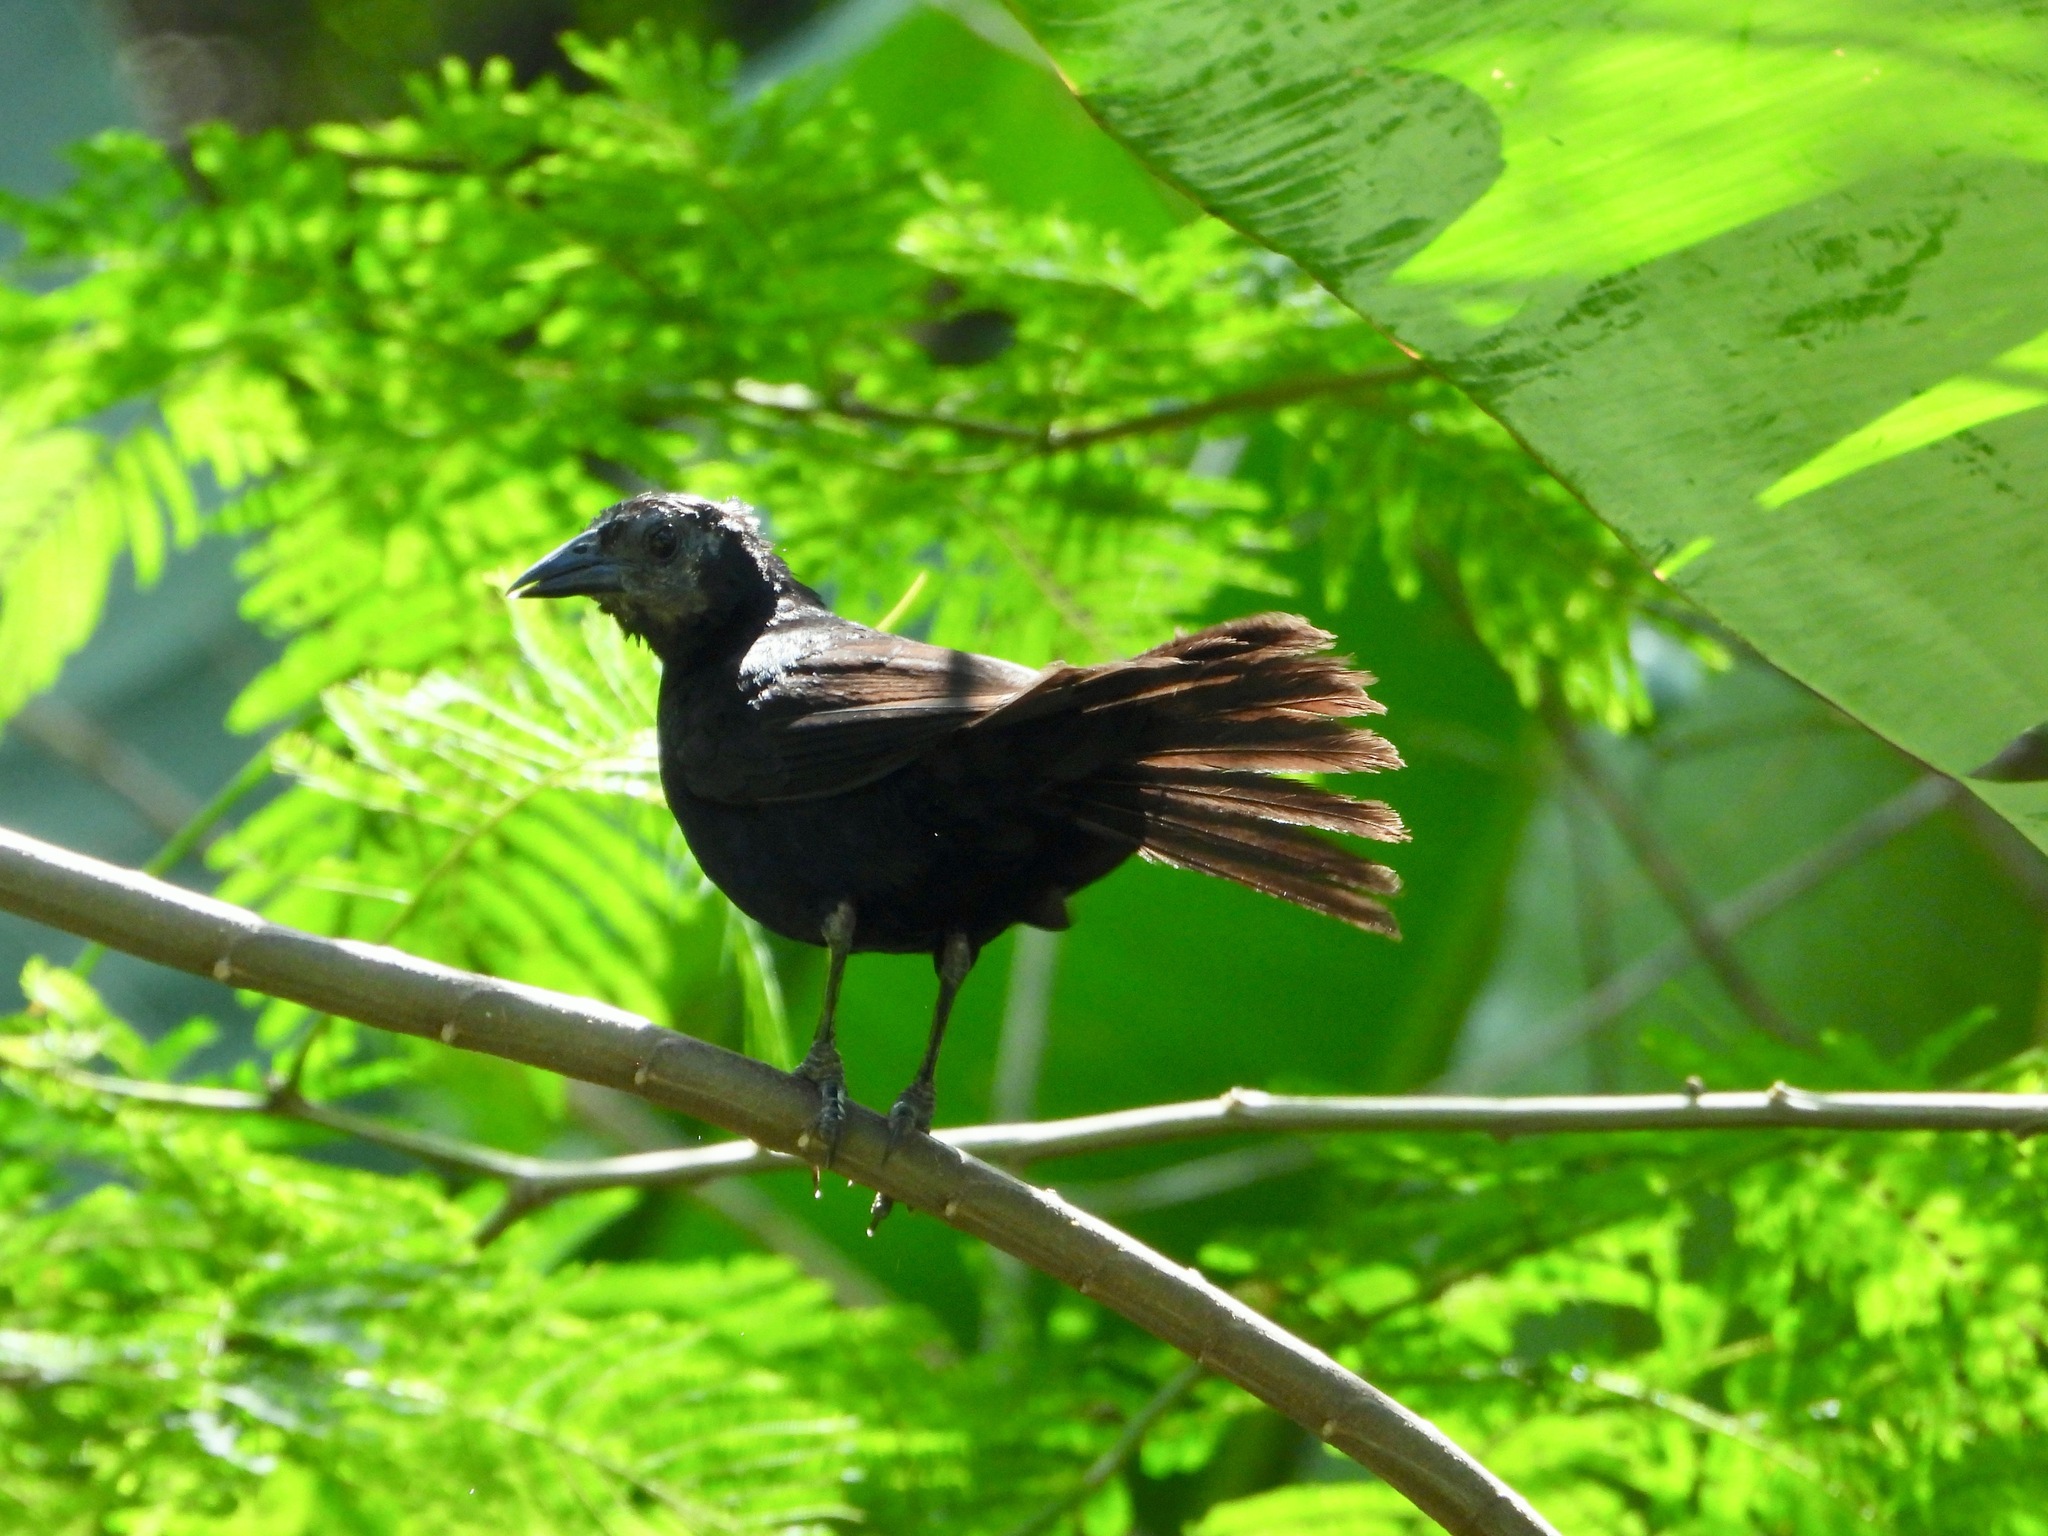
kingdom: Animalia
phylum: Chordata
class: Aves
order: Passeriformes
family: Icteridae
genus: Dives
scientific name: Dives dives
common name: Melodious blackbird
